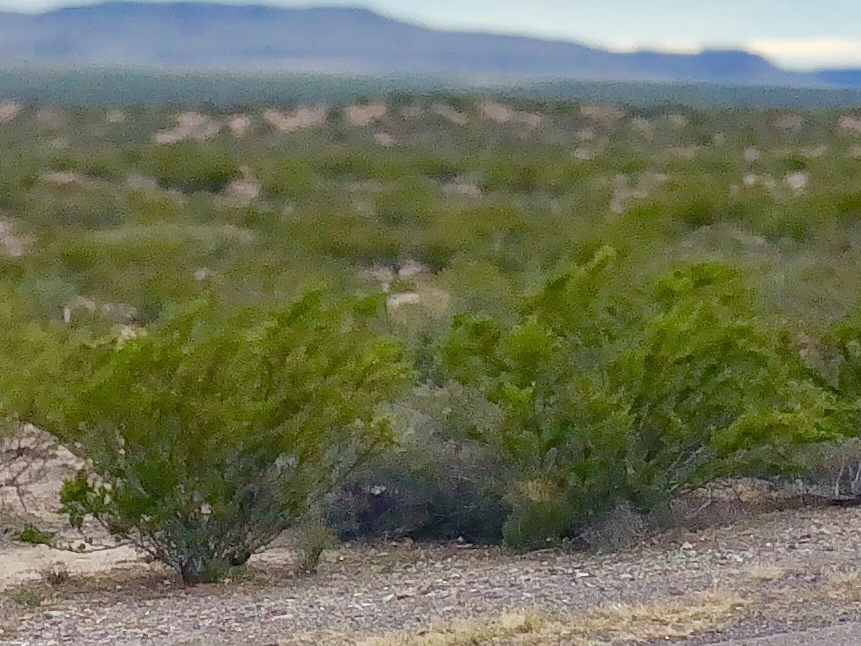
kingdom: Plantae
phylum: Tracheophyta
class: Magnoliopsida
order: Zygophyllales
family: Zygophyllaceae
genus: Larrea
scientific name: Larrea tridentata
